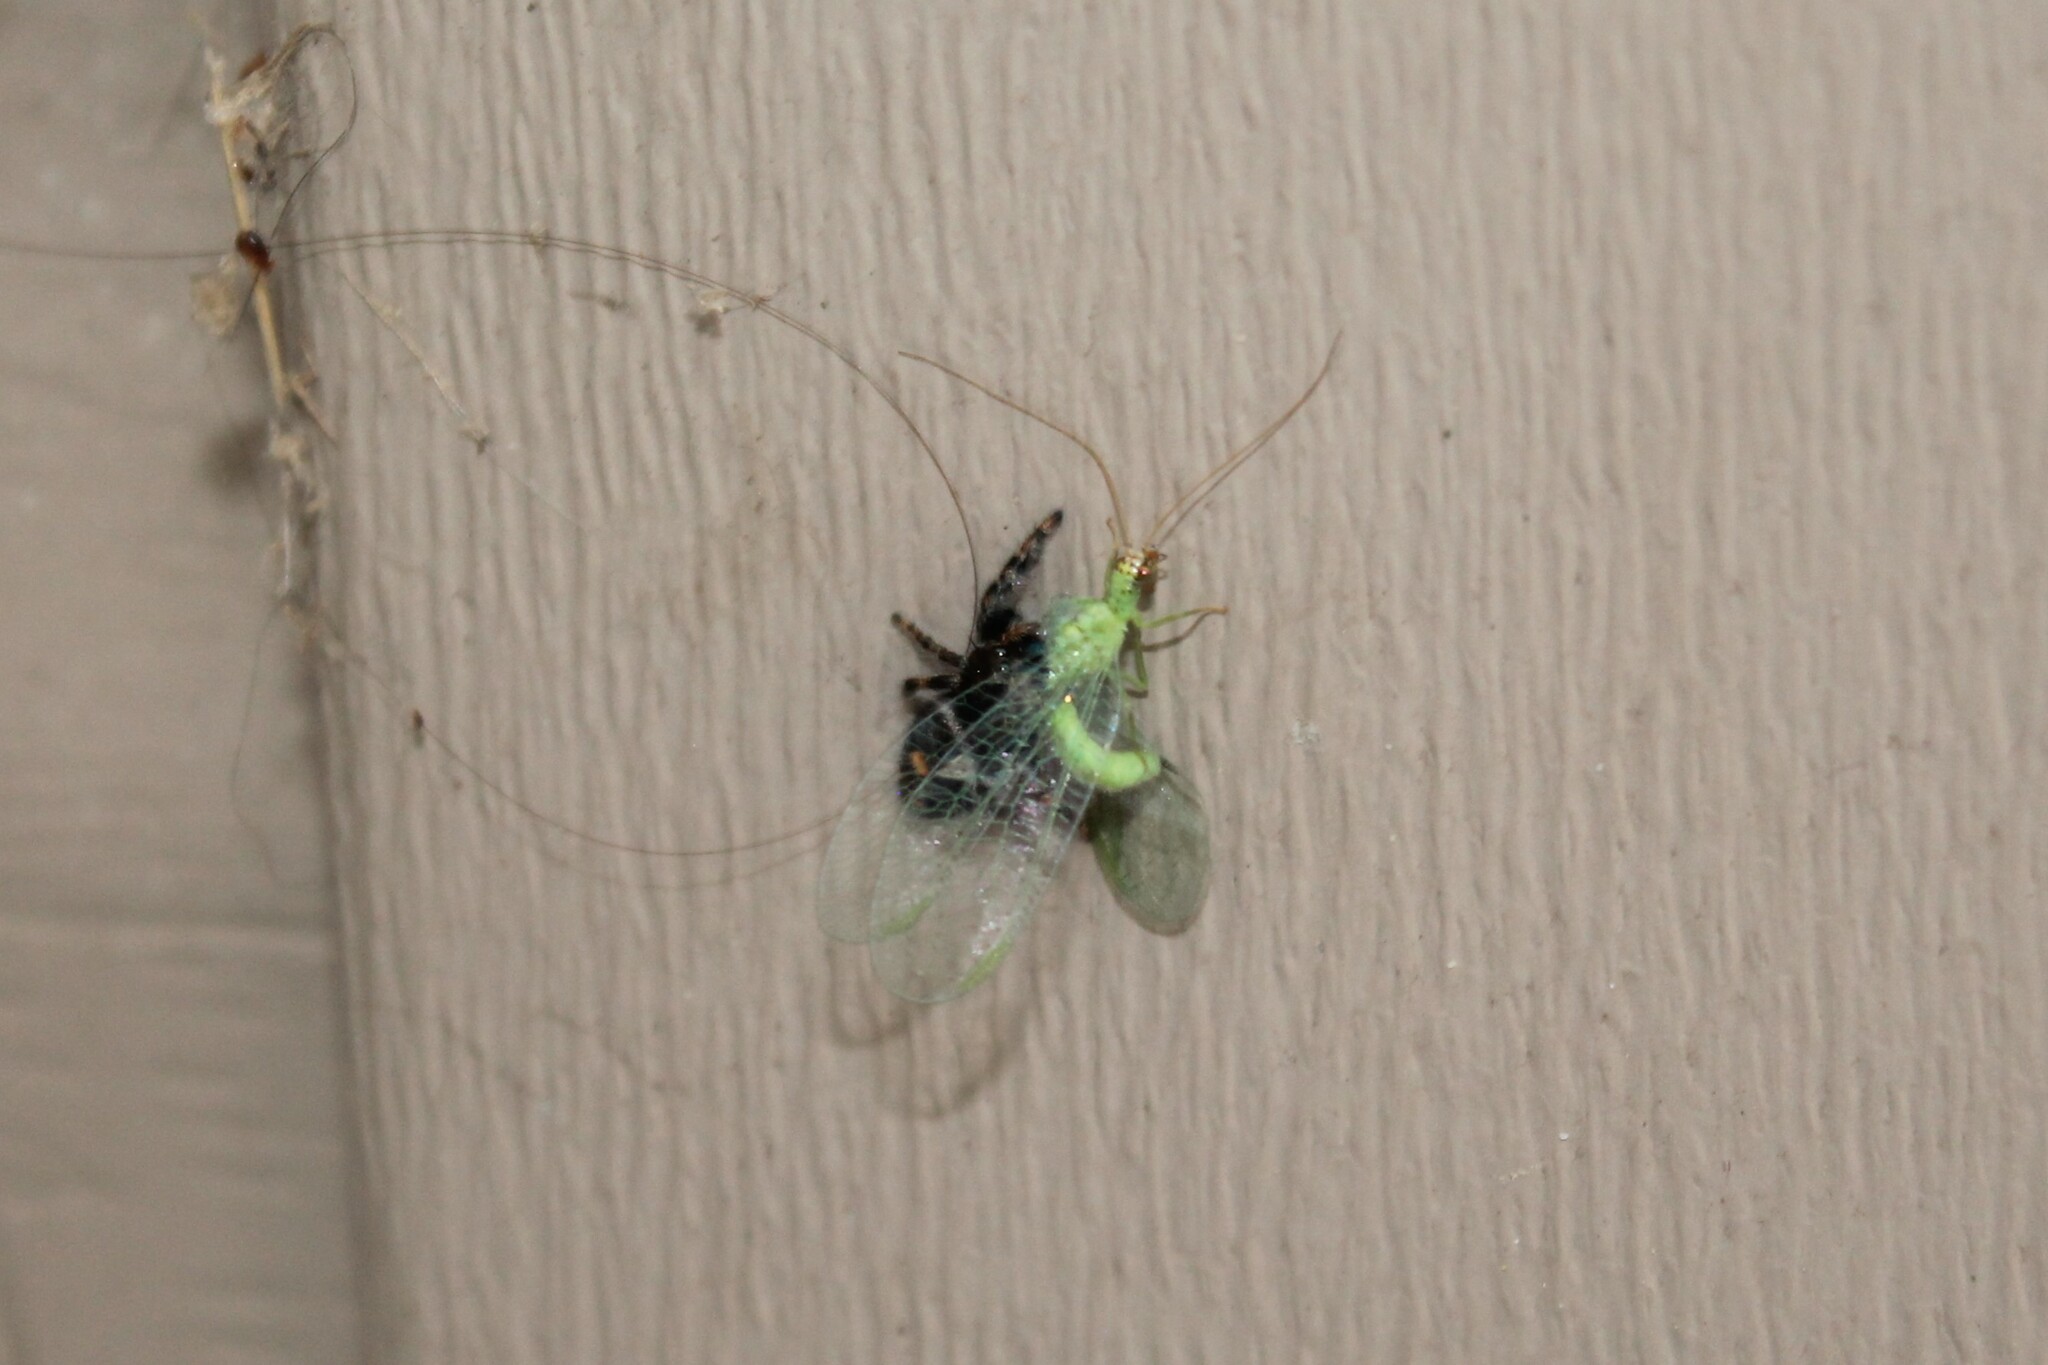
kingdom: Animalia
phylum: Arthropoda
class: Arachnida
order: Araneae
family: Salticidae
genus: Phidippus
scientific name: Phidippus audax
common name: Bold jumper
